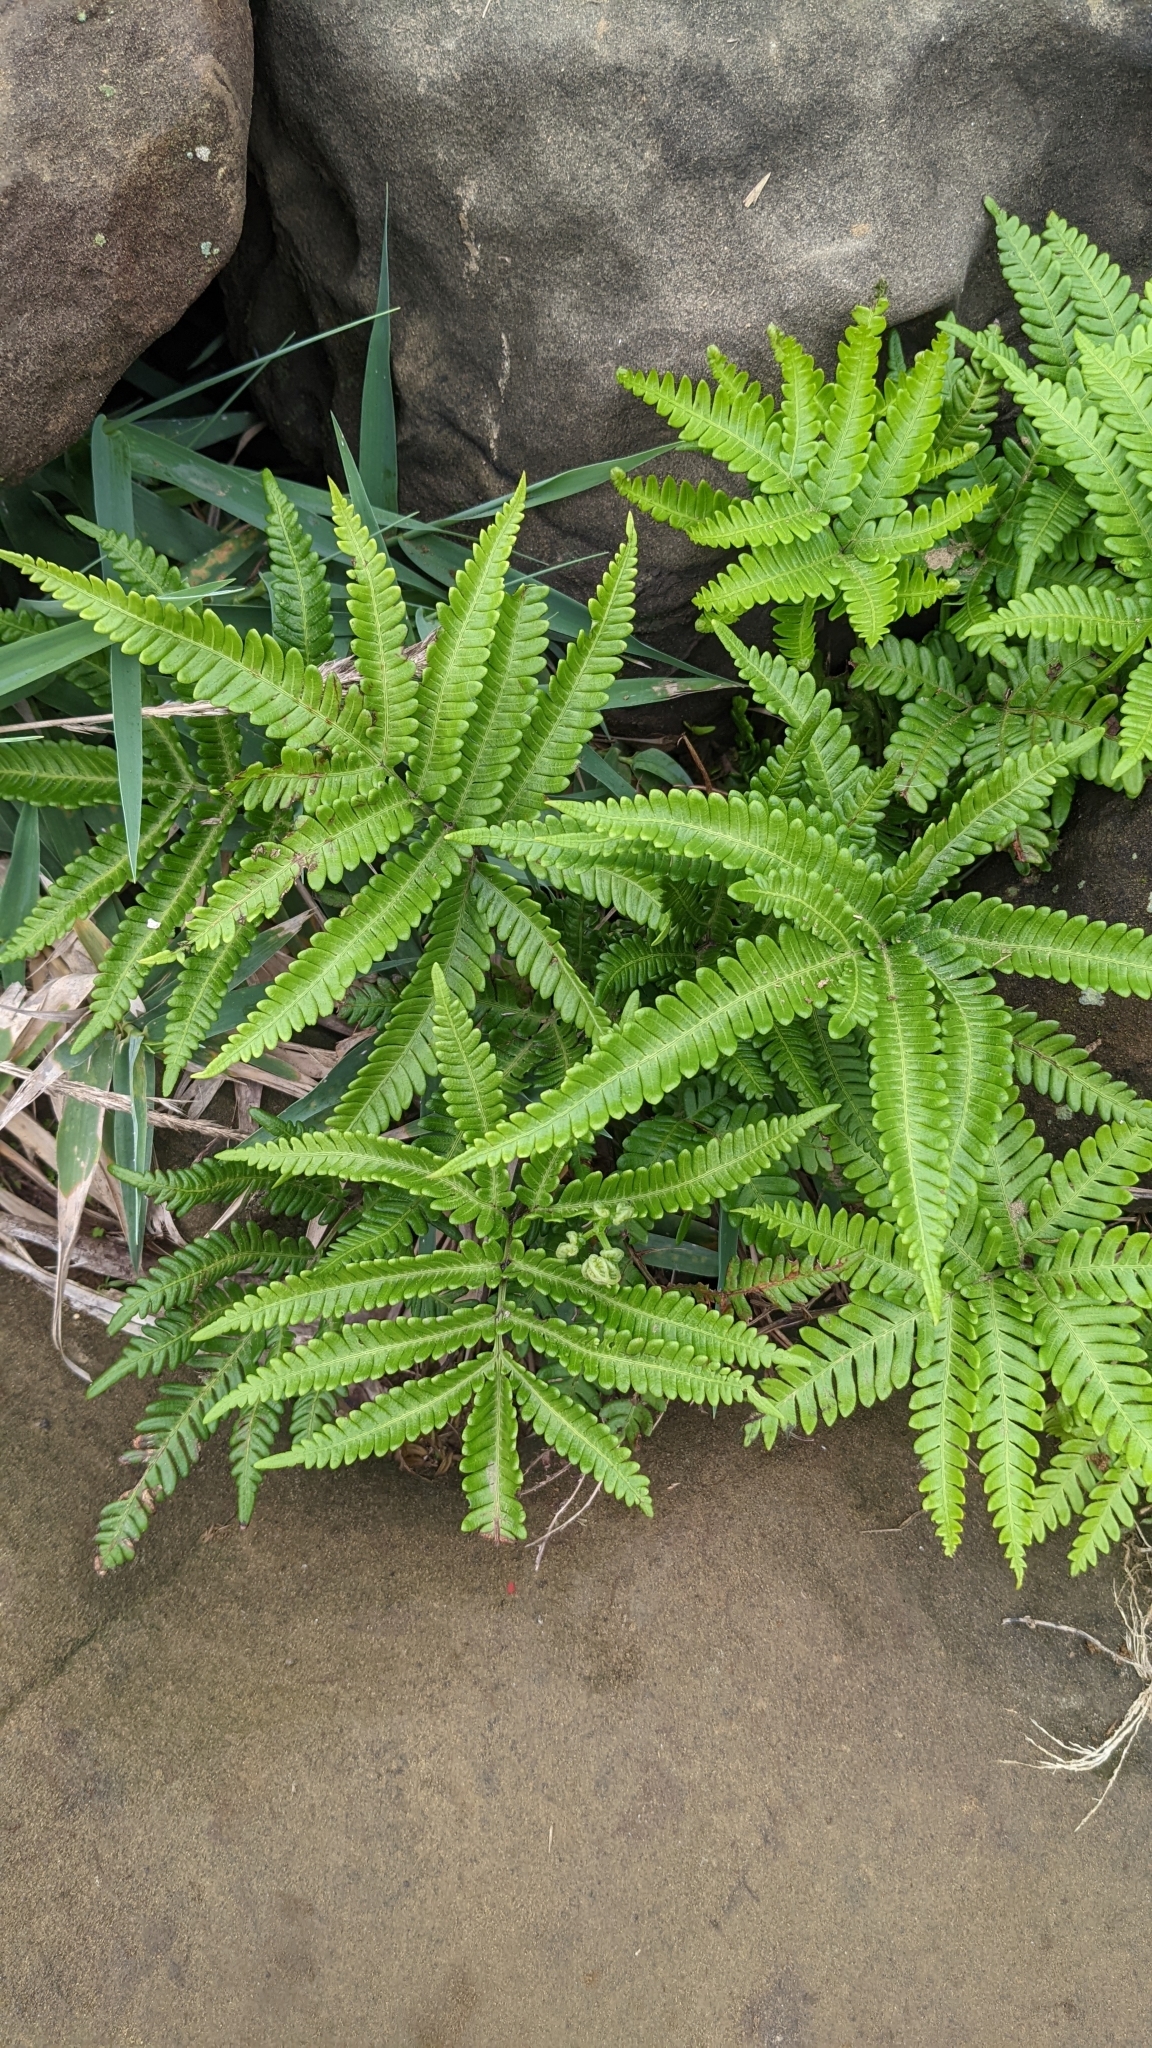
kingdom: Plantae
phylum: Tracheophyta
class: Polypodiopsida
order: Polypodiales
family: Pteridaceae
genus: Pteris
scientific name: Pteris minor
